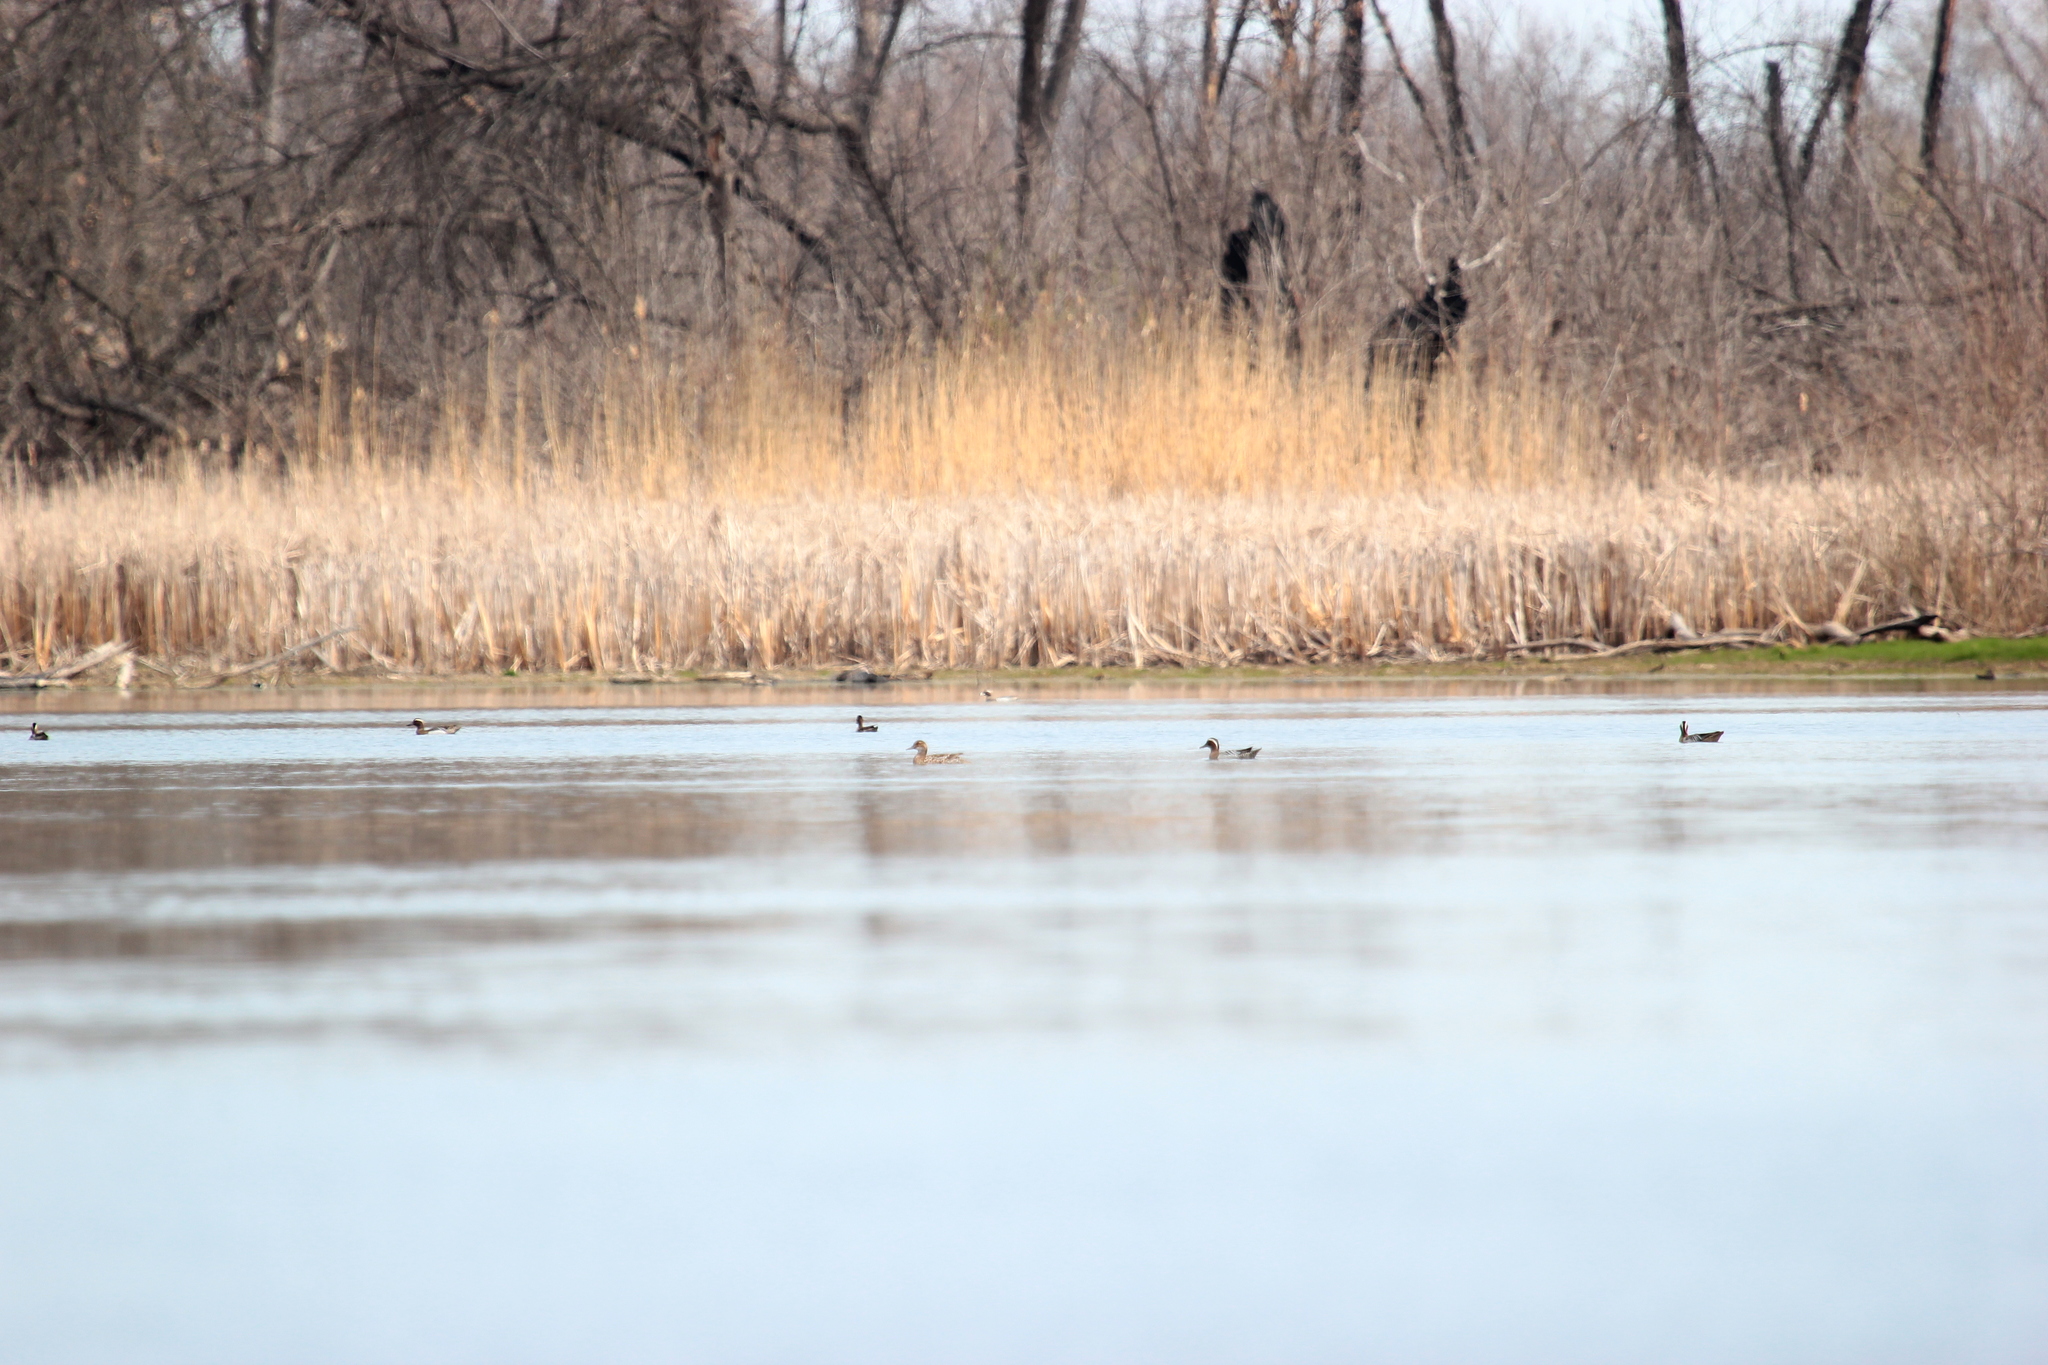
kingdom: Animalia
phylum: Chordata
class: Aves
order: Anseriformes
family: Anatidae
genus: Spatula
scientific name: Spatula querquedula
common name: Garganey
